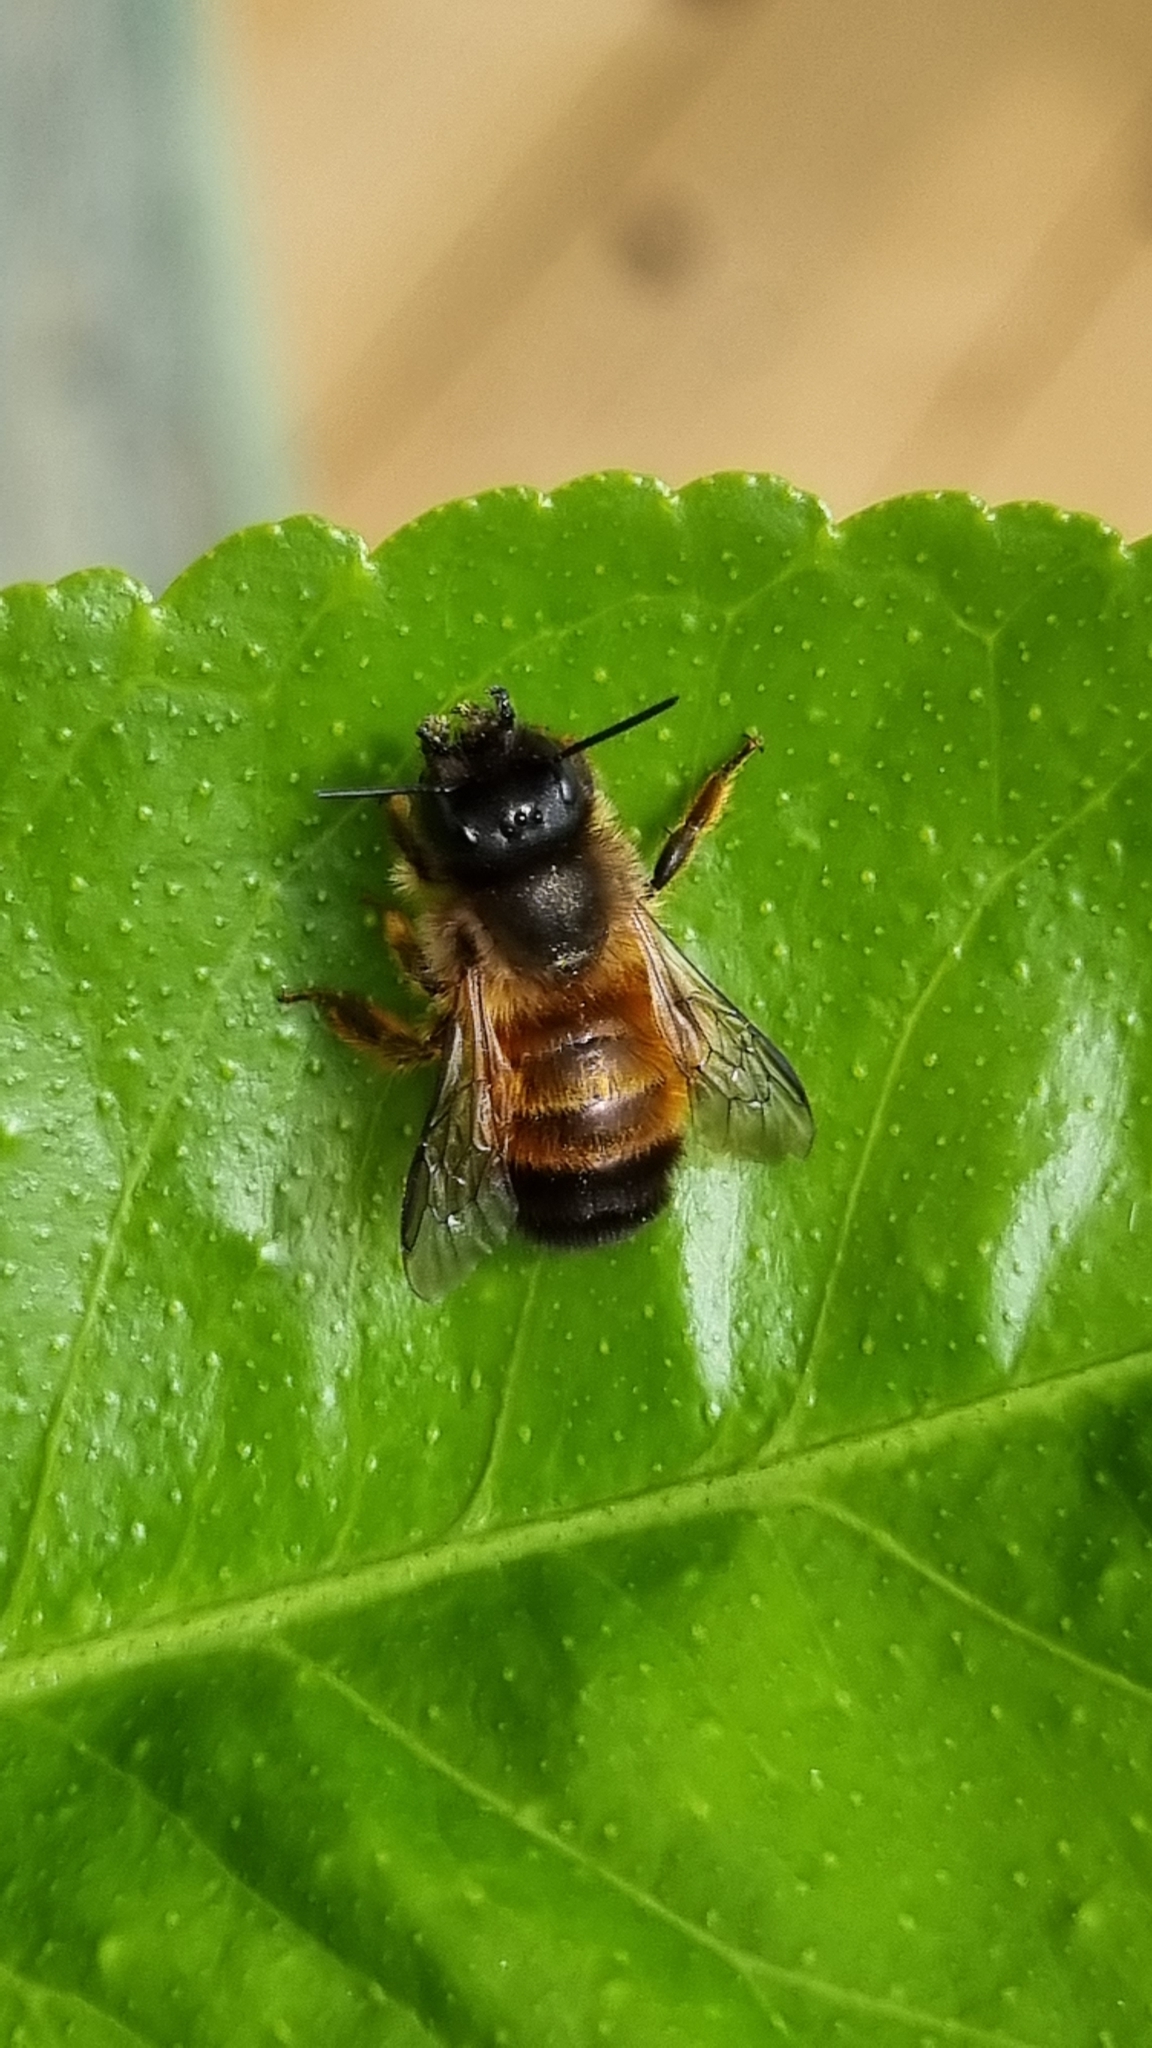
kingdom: Animalia
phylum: Arthropoda
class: Insecta
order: Hymenoptera
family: Megachilidae
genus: Osmia
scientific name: Osmia bicornis
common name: Red mason bee
